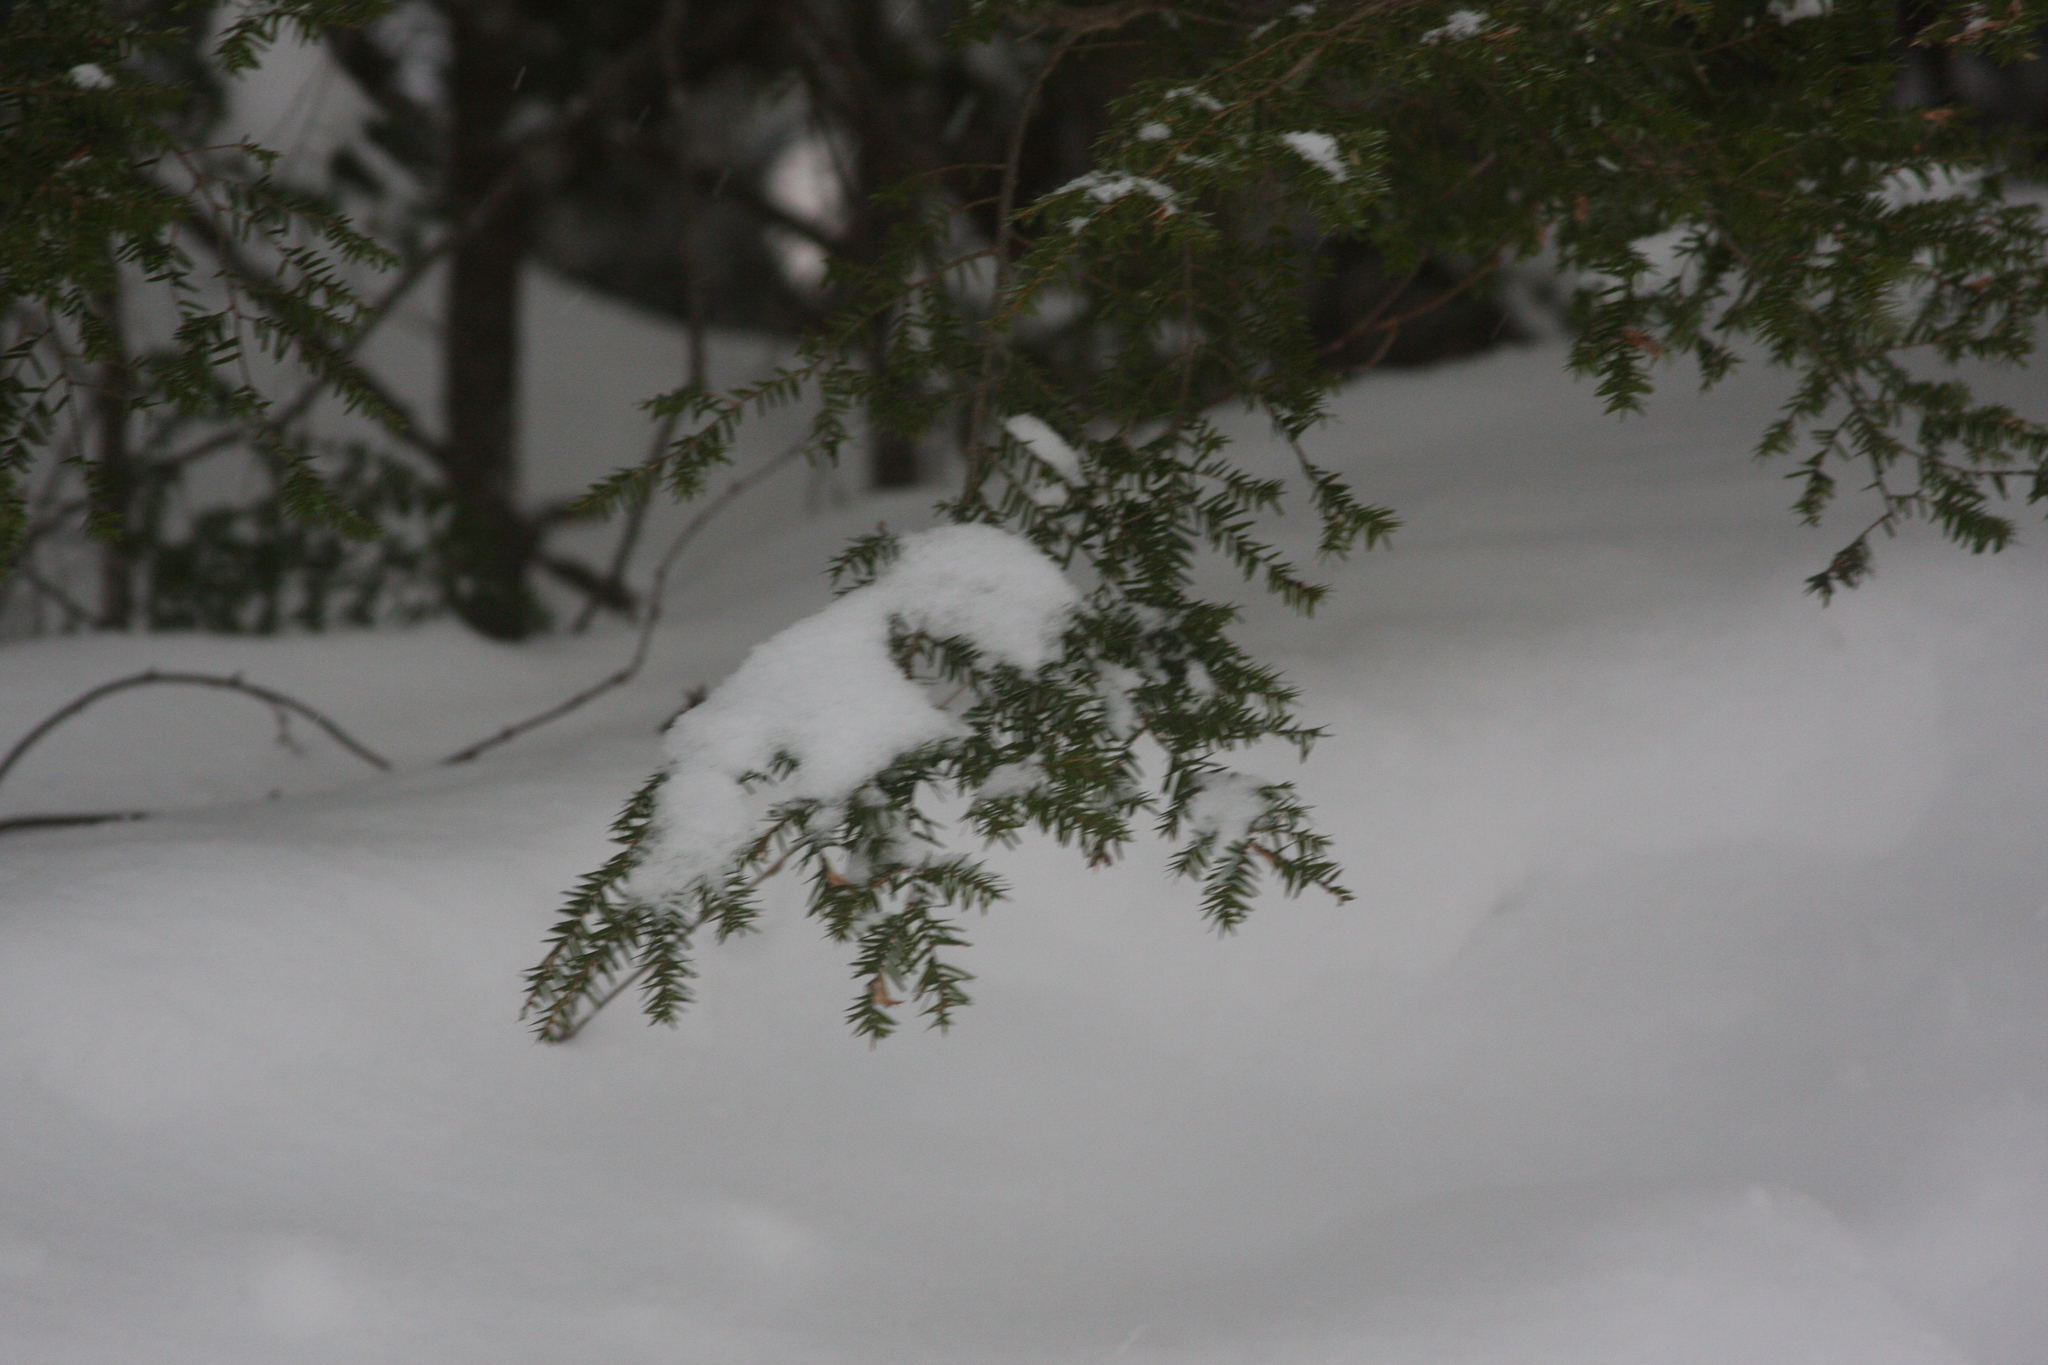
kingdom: Plantae
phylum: Tracheophyta
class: Pinopsida
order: Pinales
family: Pinaceae
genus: Tsuga
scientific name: Tsuga canadensis
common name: Eastern hemlock
